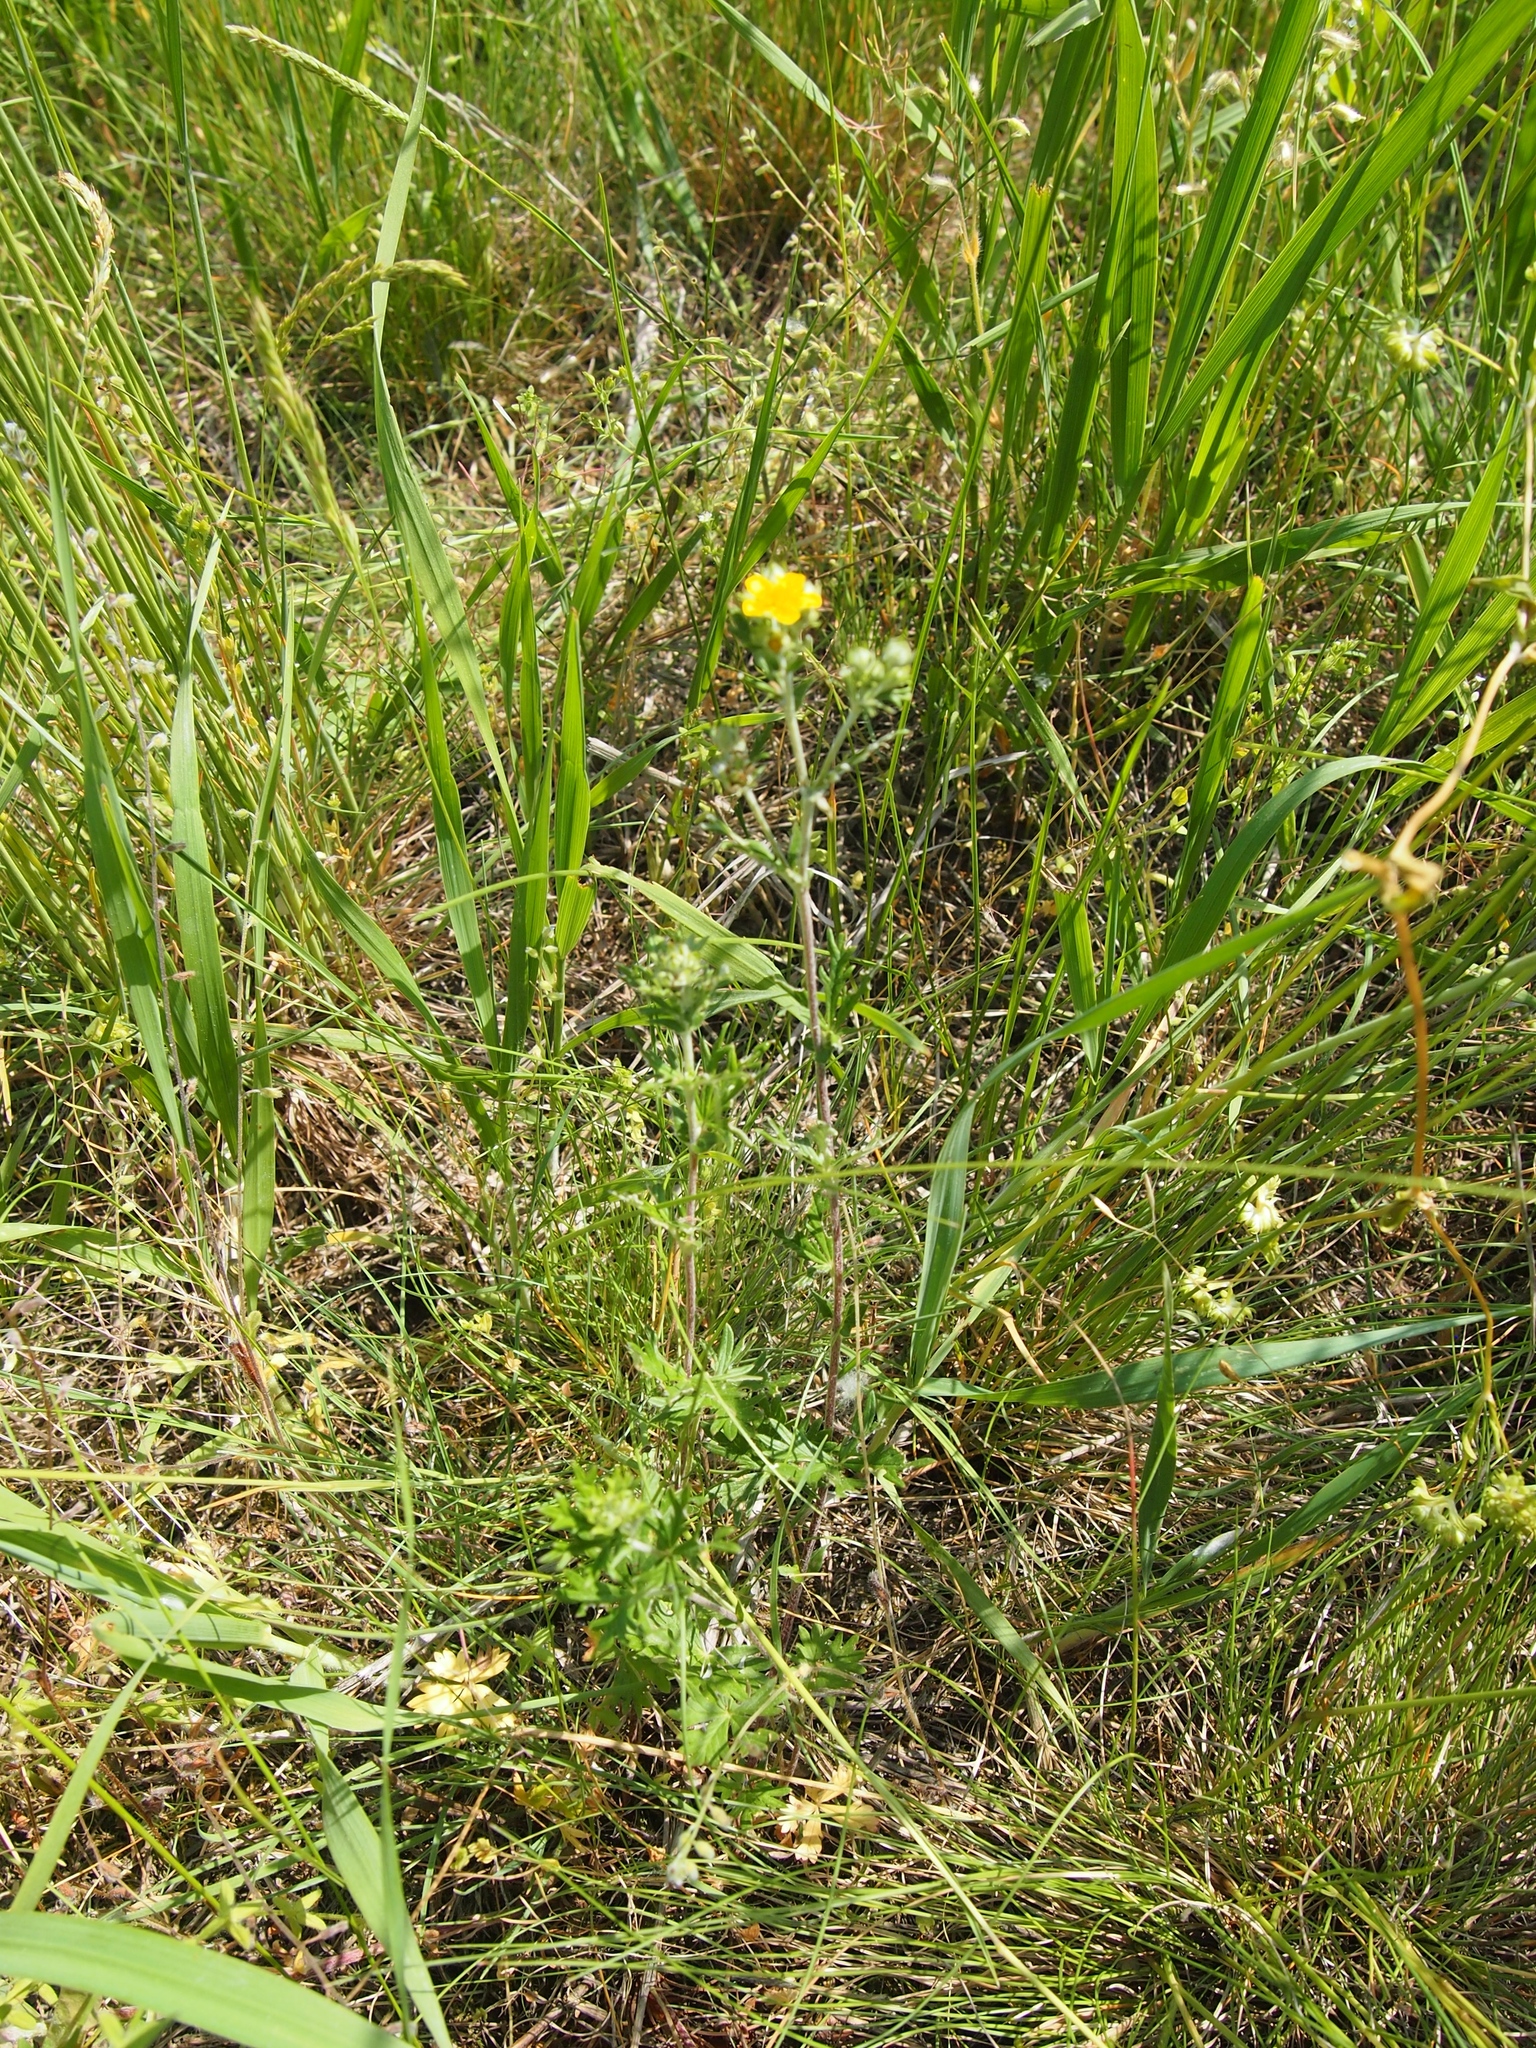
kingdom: Plantae
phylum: Tracheophyta
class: Magnoliopsida
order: Rosales
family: Rosaceae
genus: Potentilla
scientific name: Potentilla argentea
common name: Hoary cinquefoil
